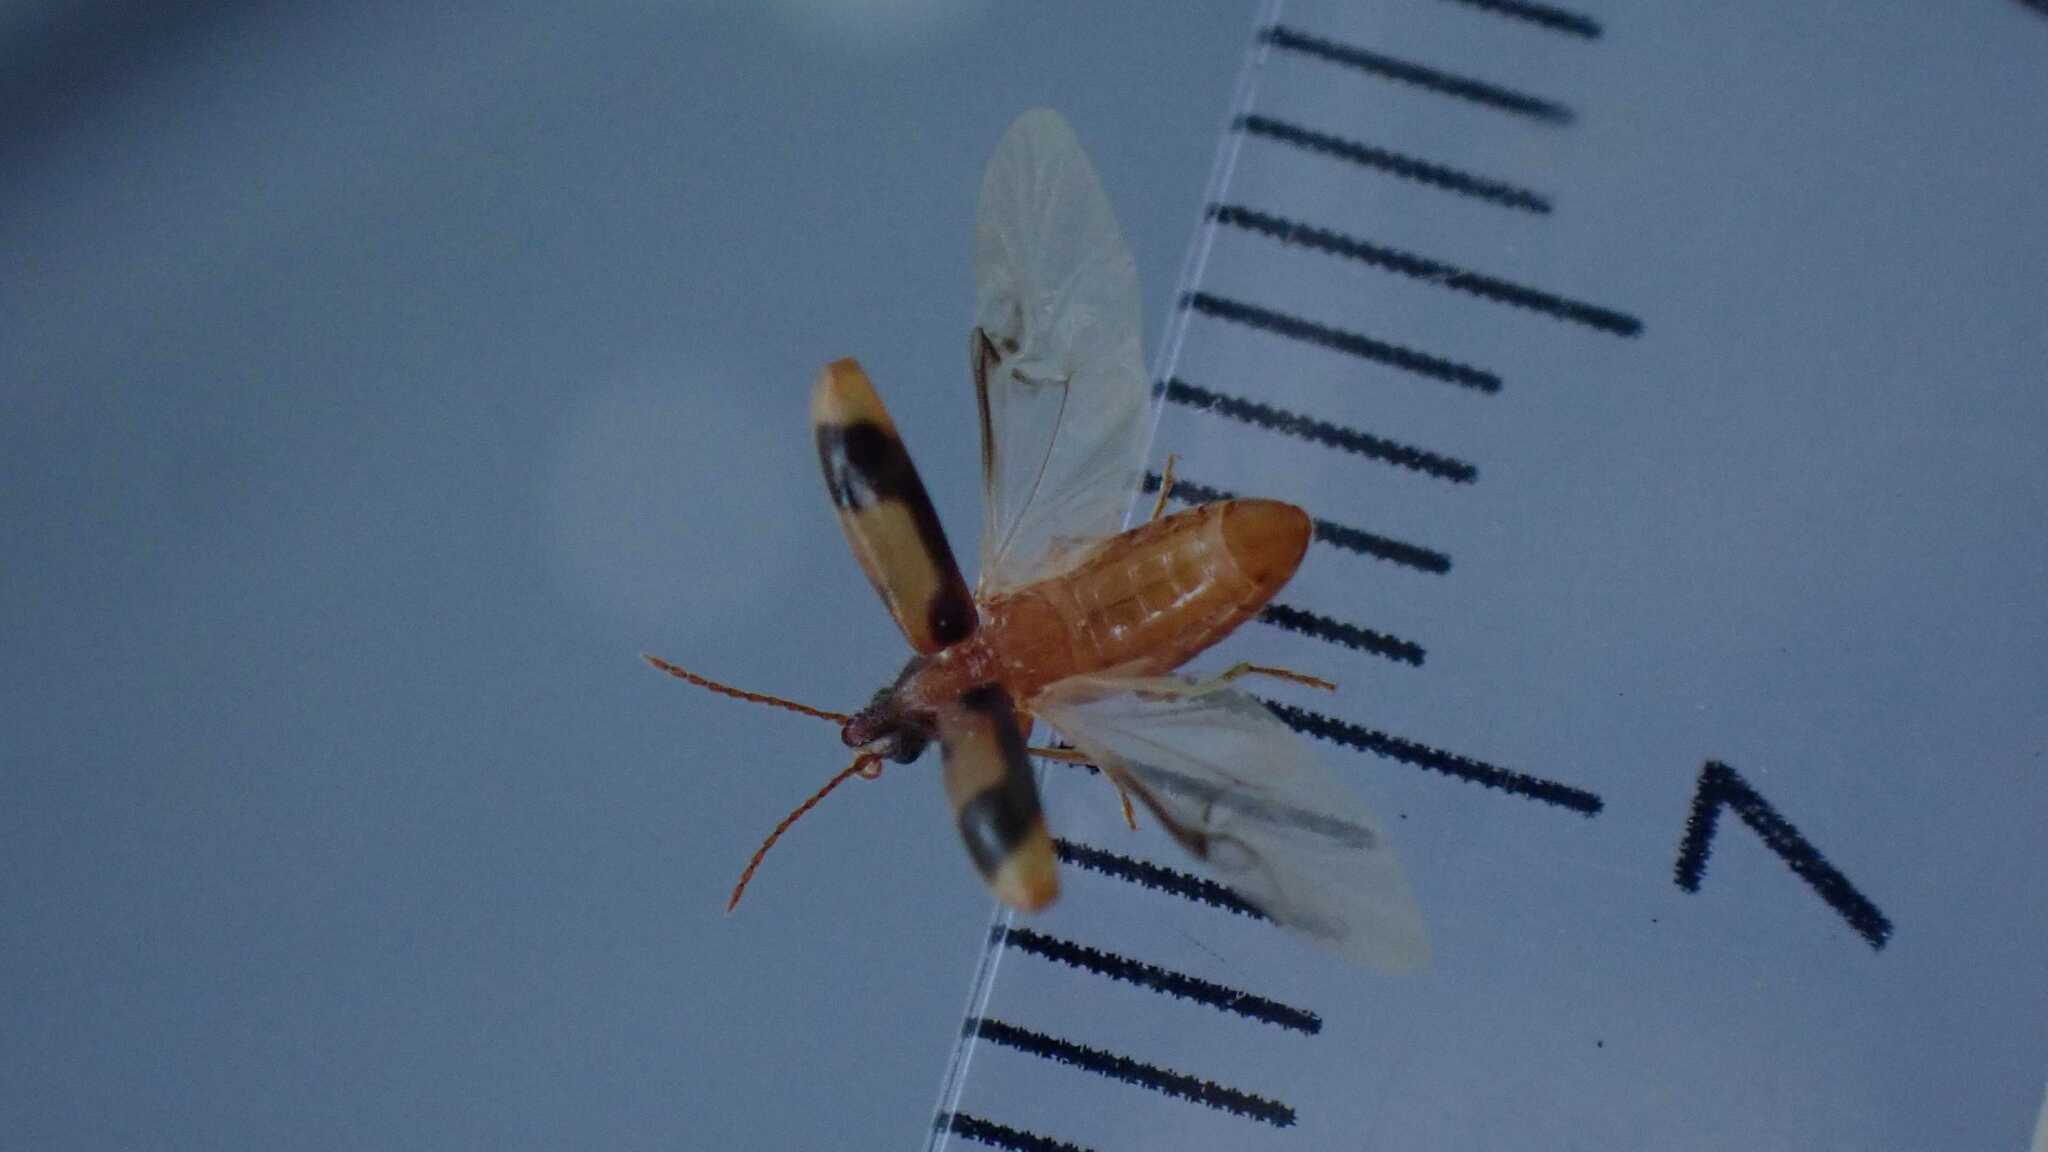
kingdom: Animalia
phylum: Arthropoda
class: Insecta
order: Coleoptera
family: Anthicidae
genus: Notoxus
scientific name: Notoxus monoceros
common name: Monoceros beetle
